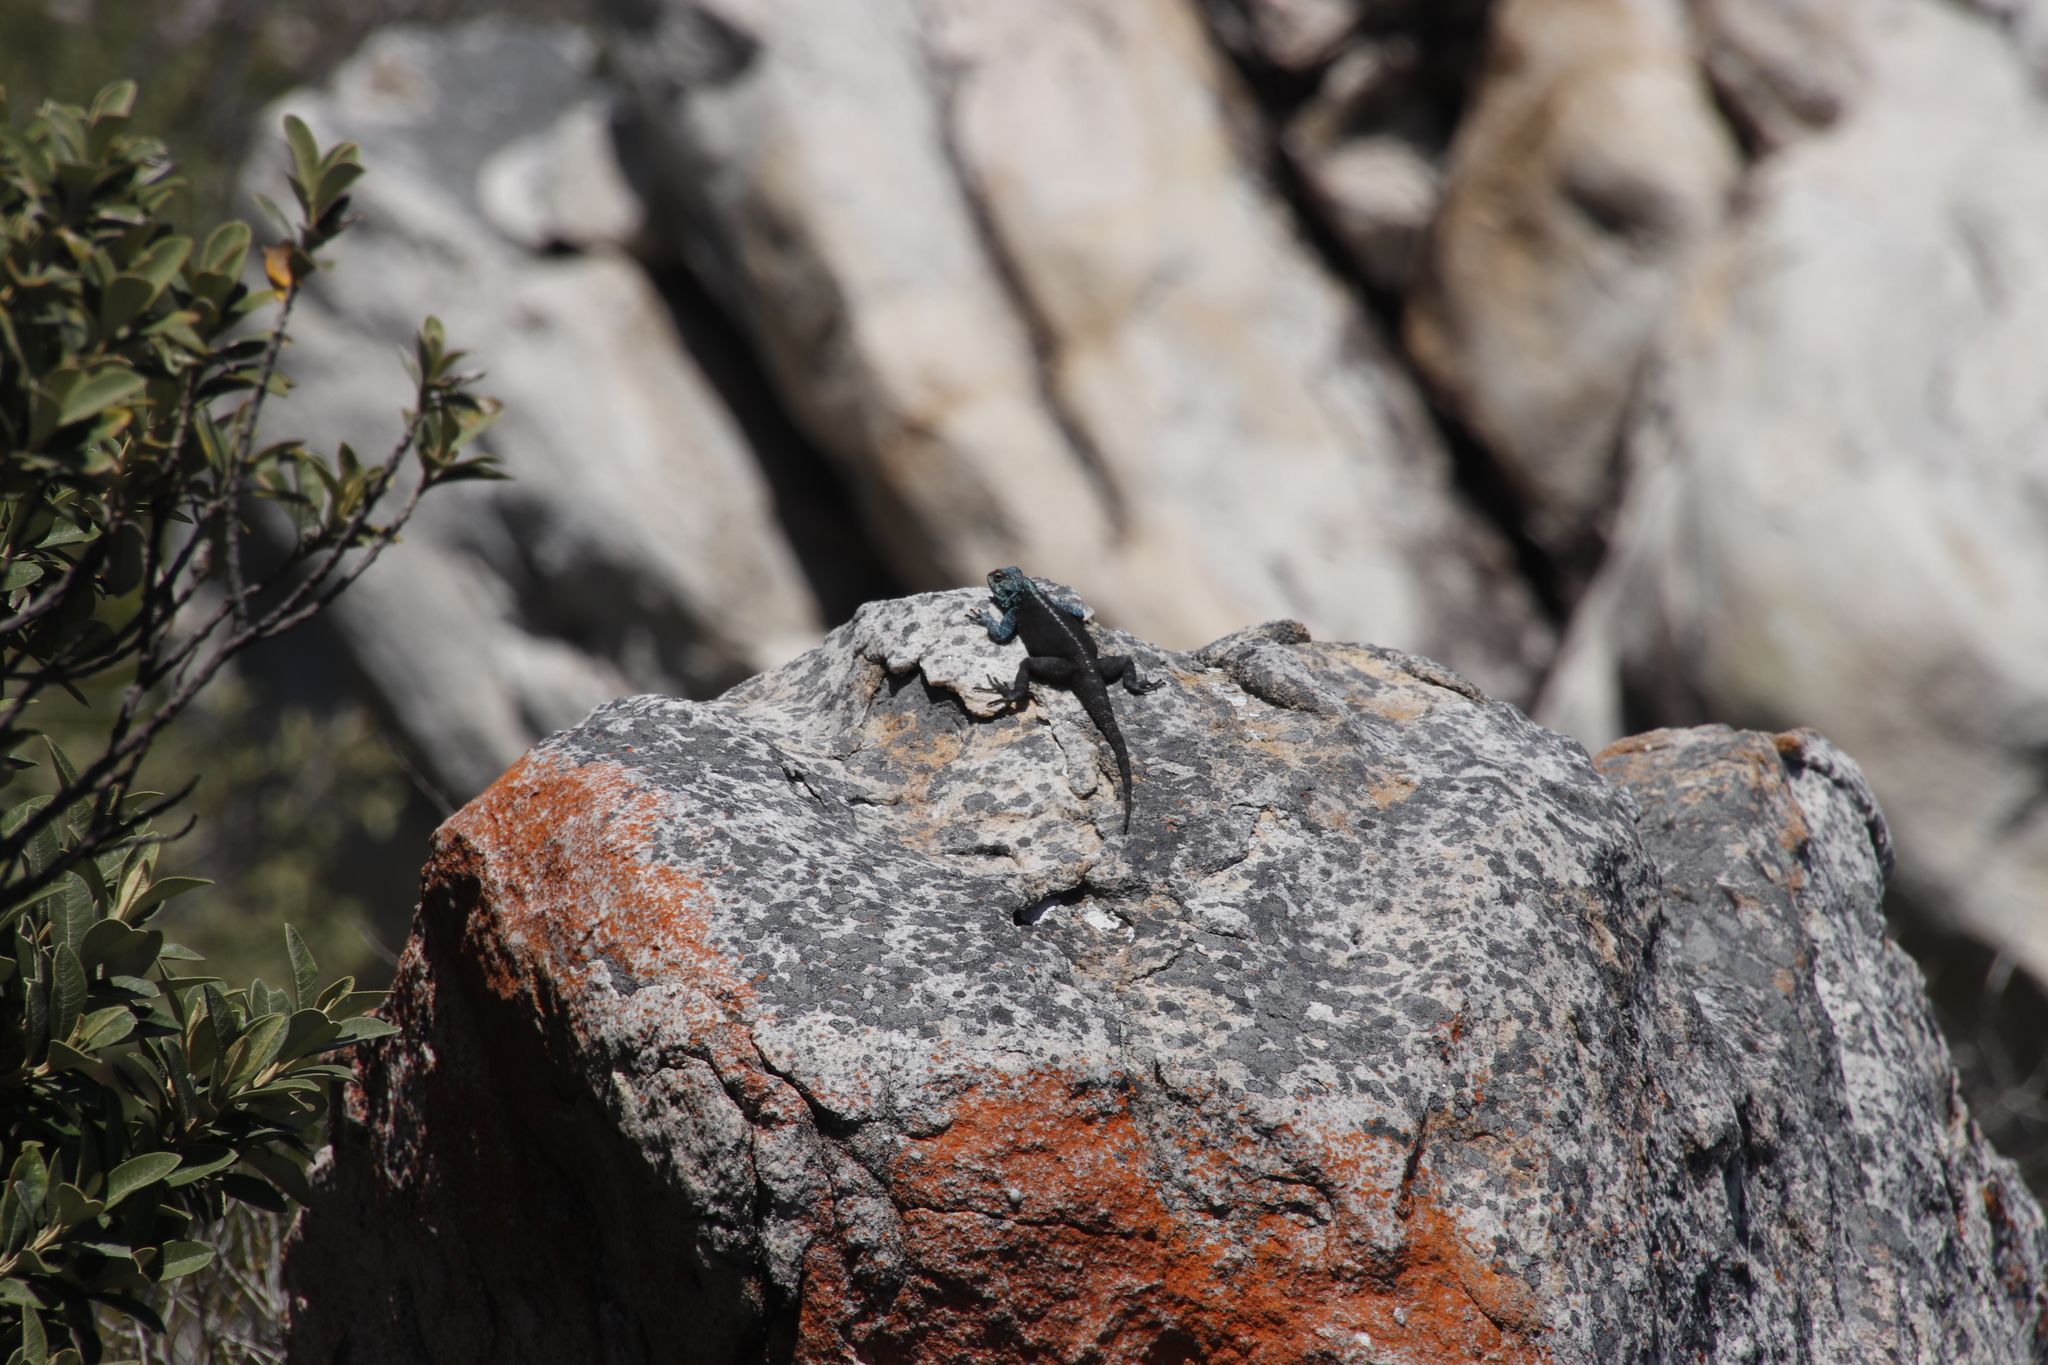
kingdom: Animalia
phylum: Chordata
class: Squamata
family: Agamidae
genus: Agama
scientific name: Agama atra
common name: Southern african rock agama
